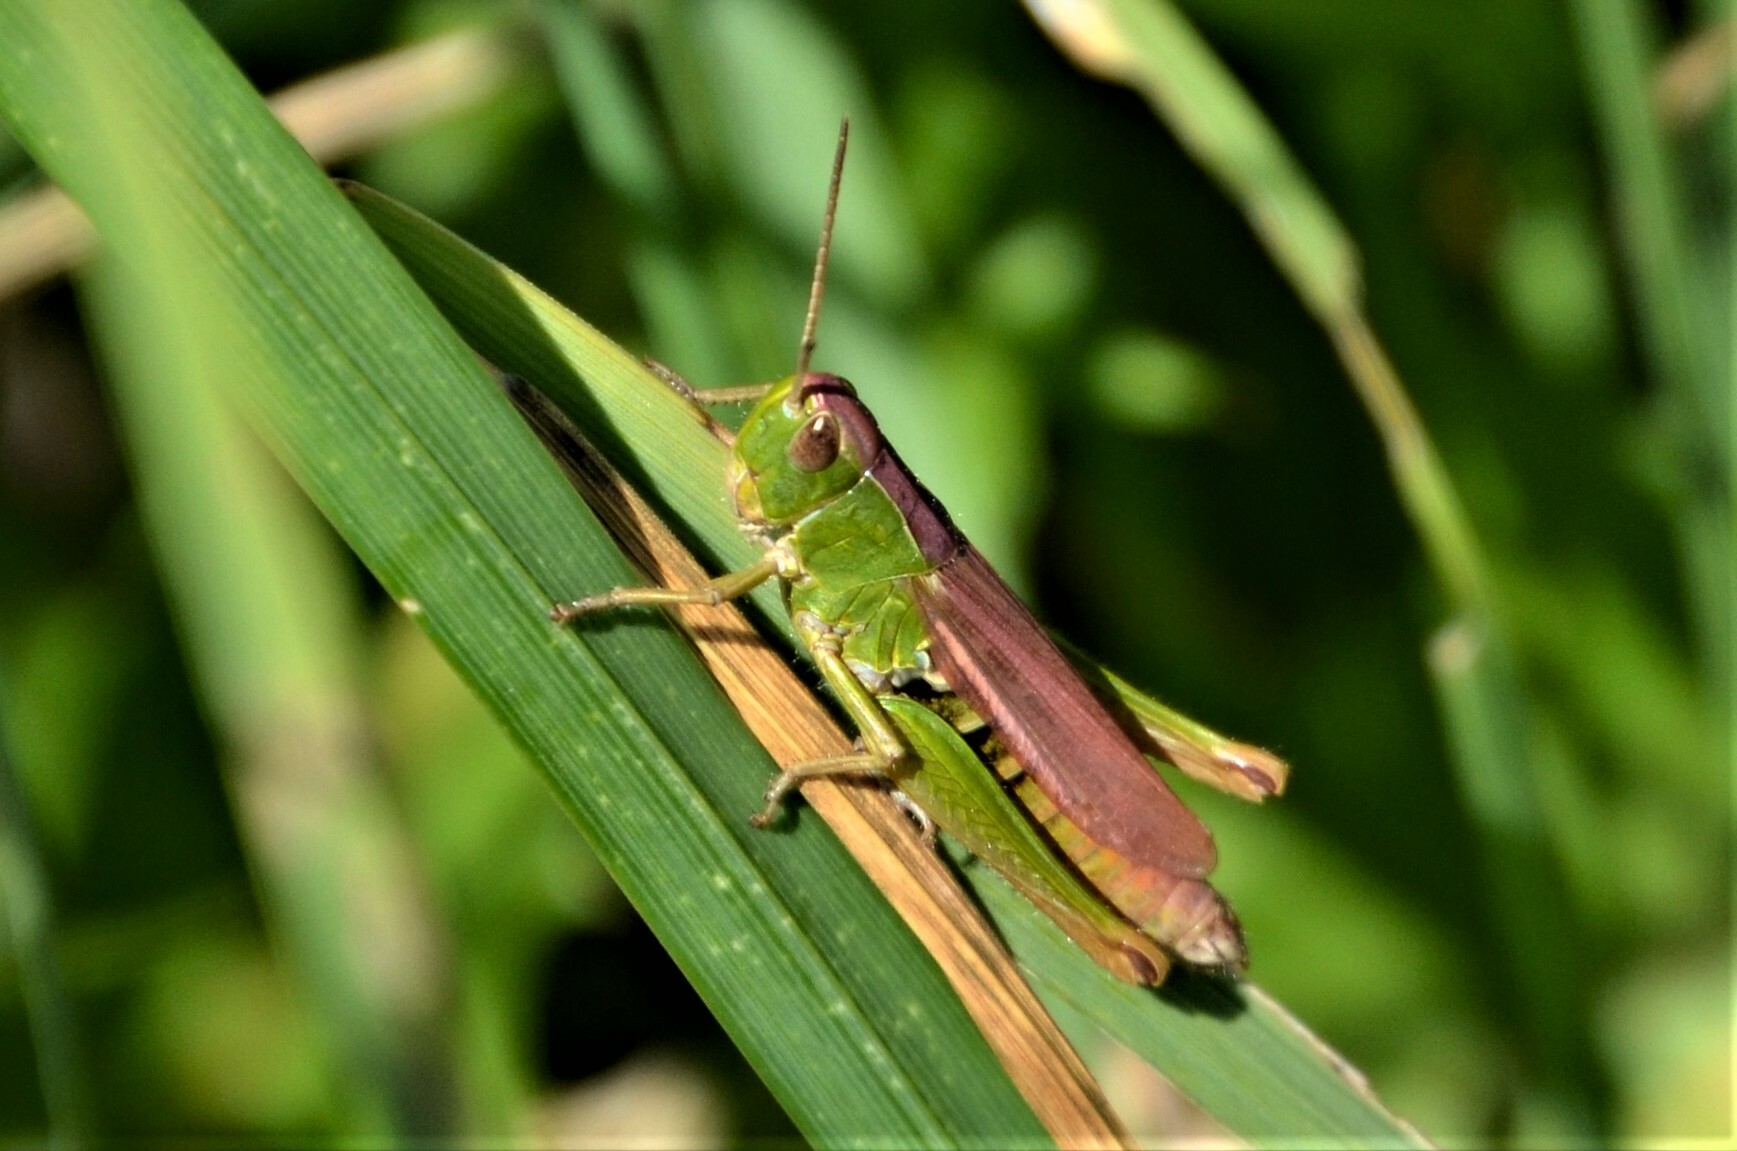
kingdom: Animalia
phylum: Arthropoda
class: Insecta
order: Orthoptera
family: Acrididae
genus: Chorthippus
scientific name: Chorthippus dorsatus
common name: Steppe grasshopper
